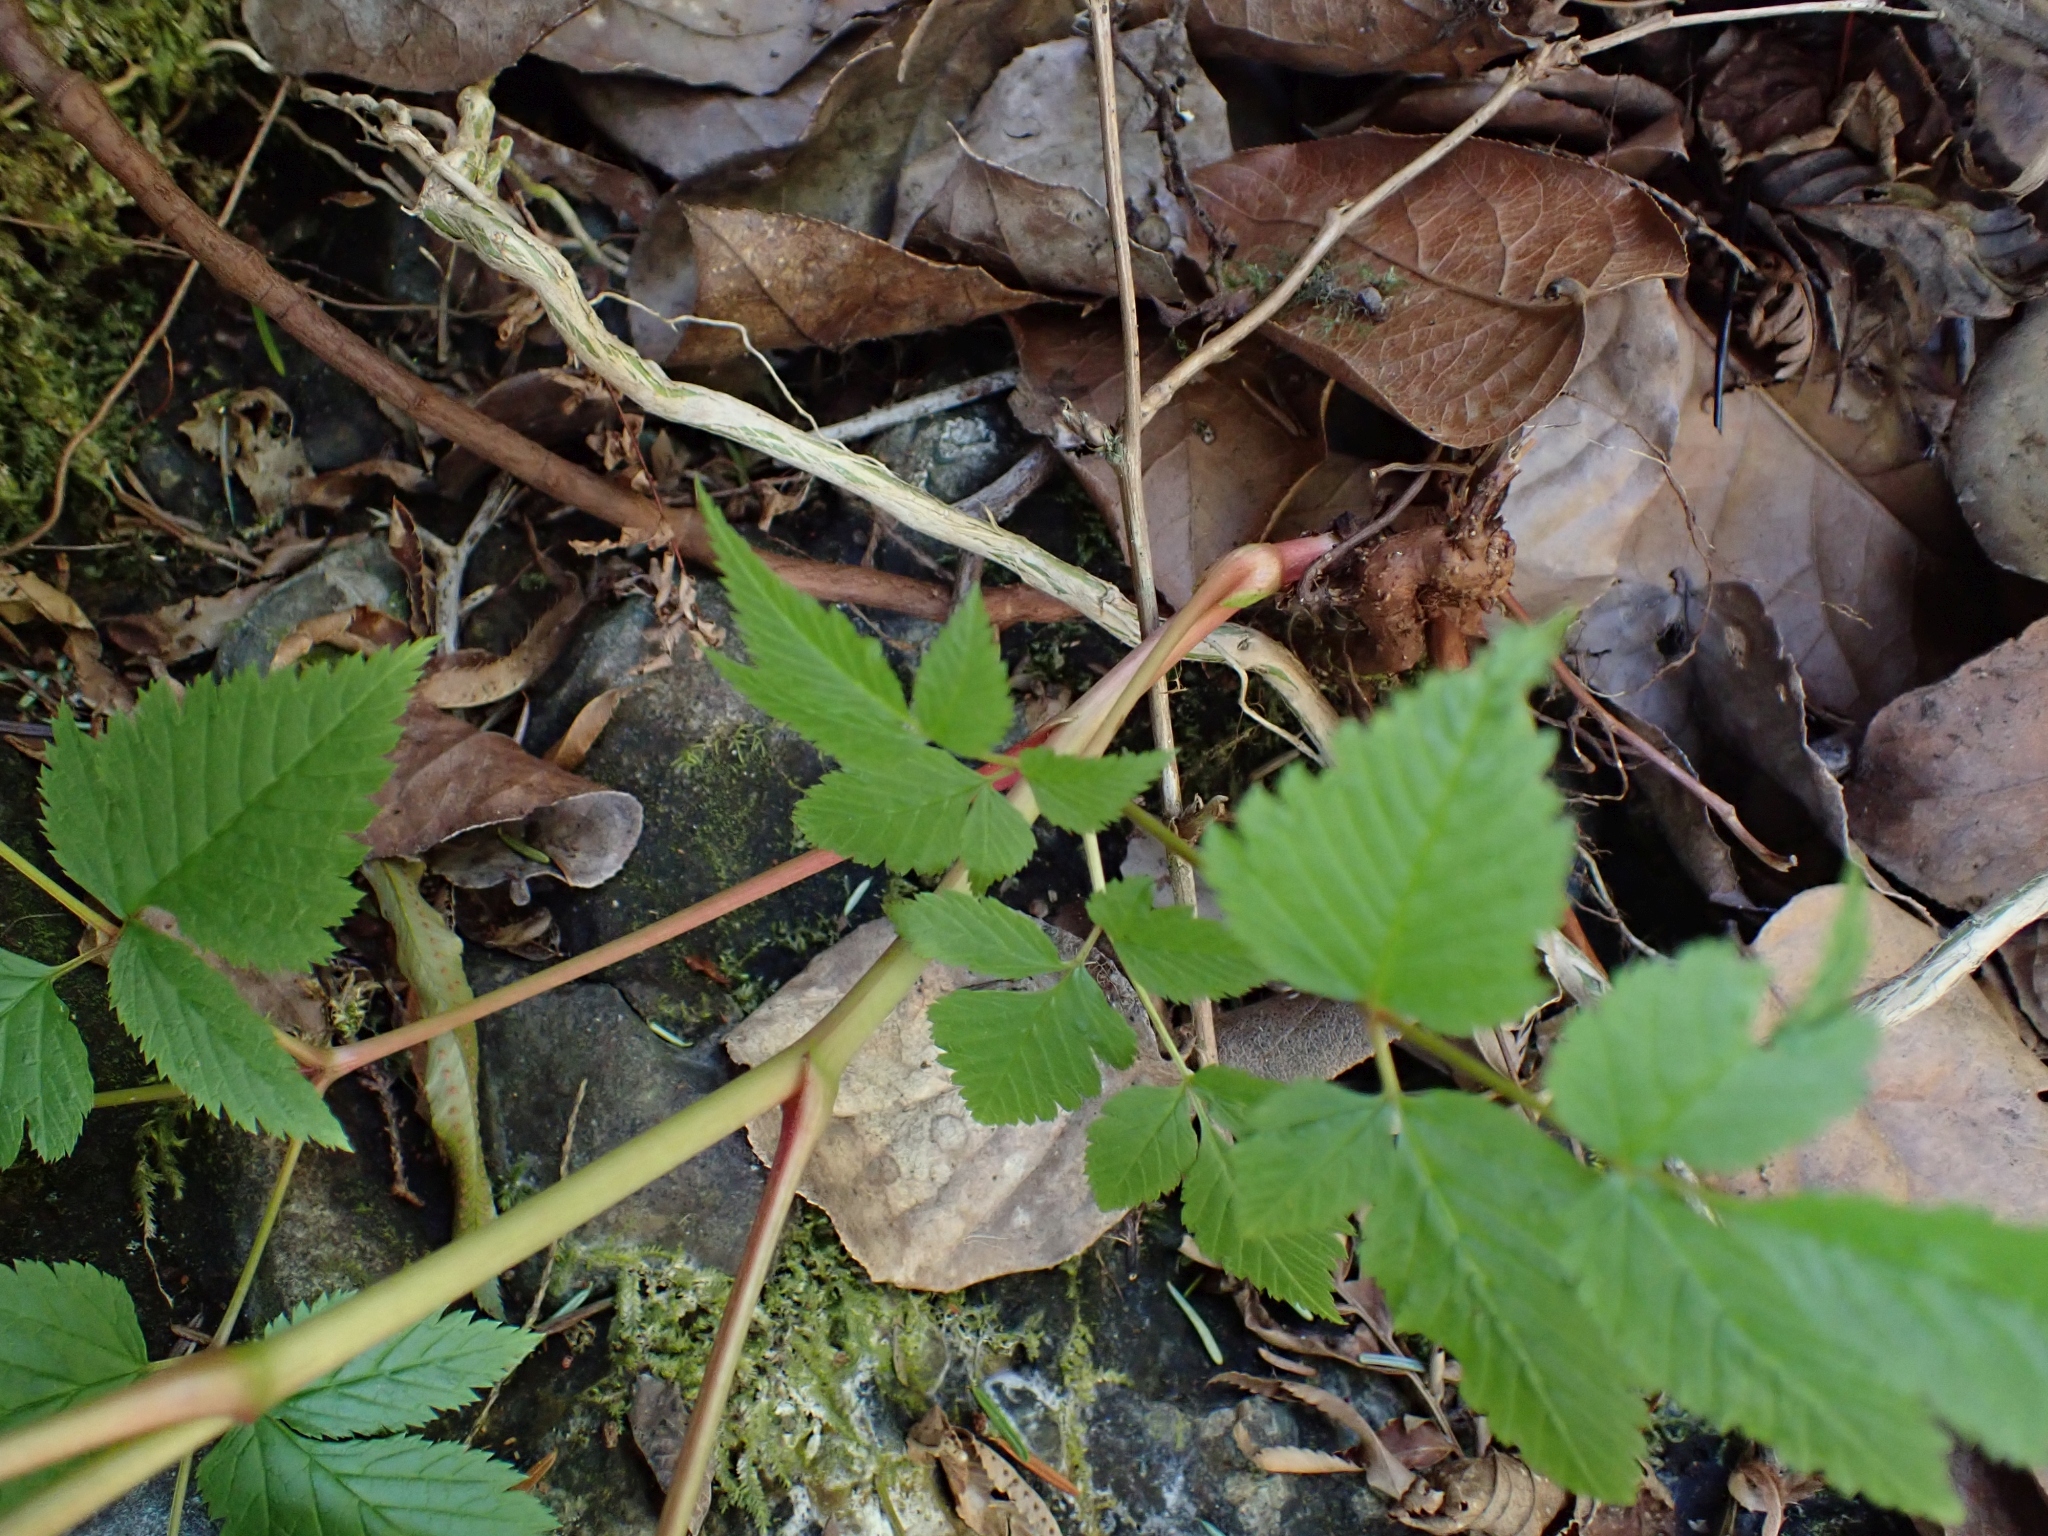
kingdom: Plantae
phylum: Tracheophyta
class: Magnoliopsida
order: Rosales
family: Rosaceae
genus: Aruncus
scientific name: Aruncus dioicus
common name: Buck's-beard
